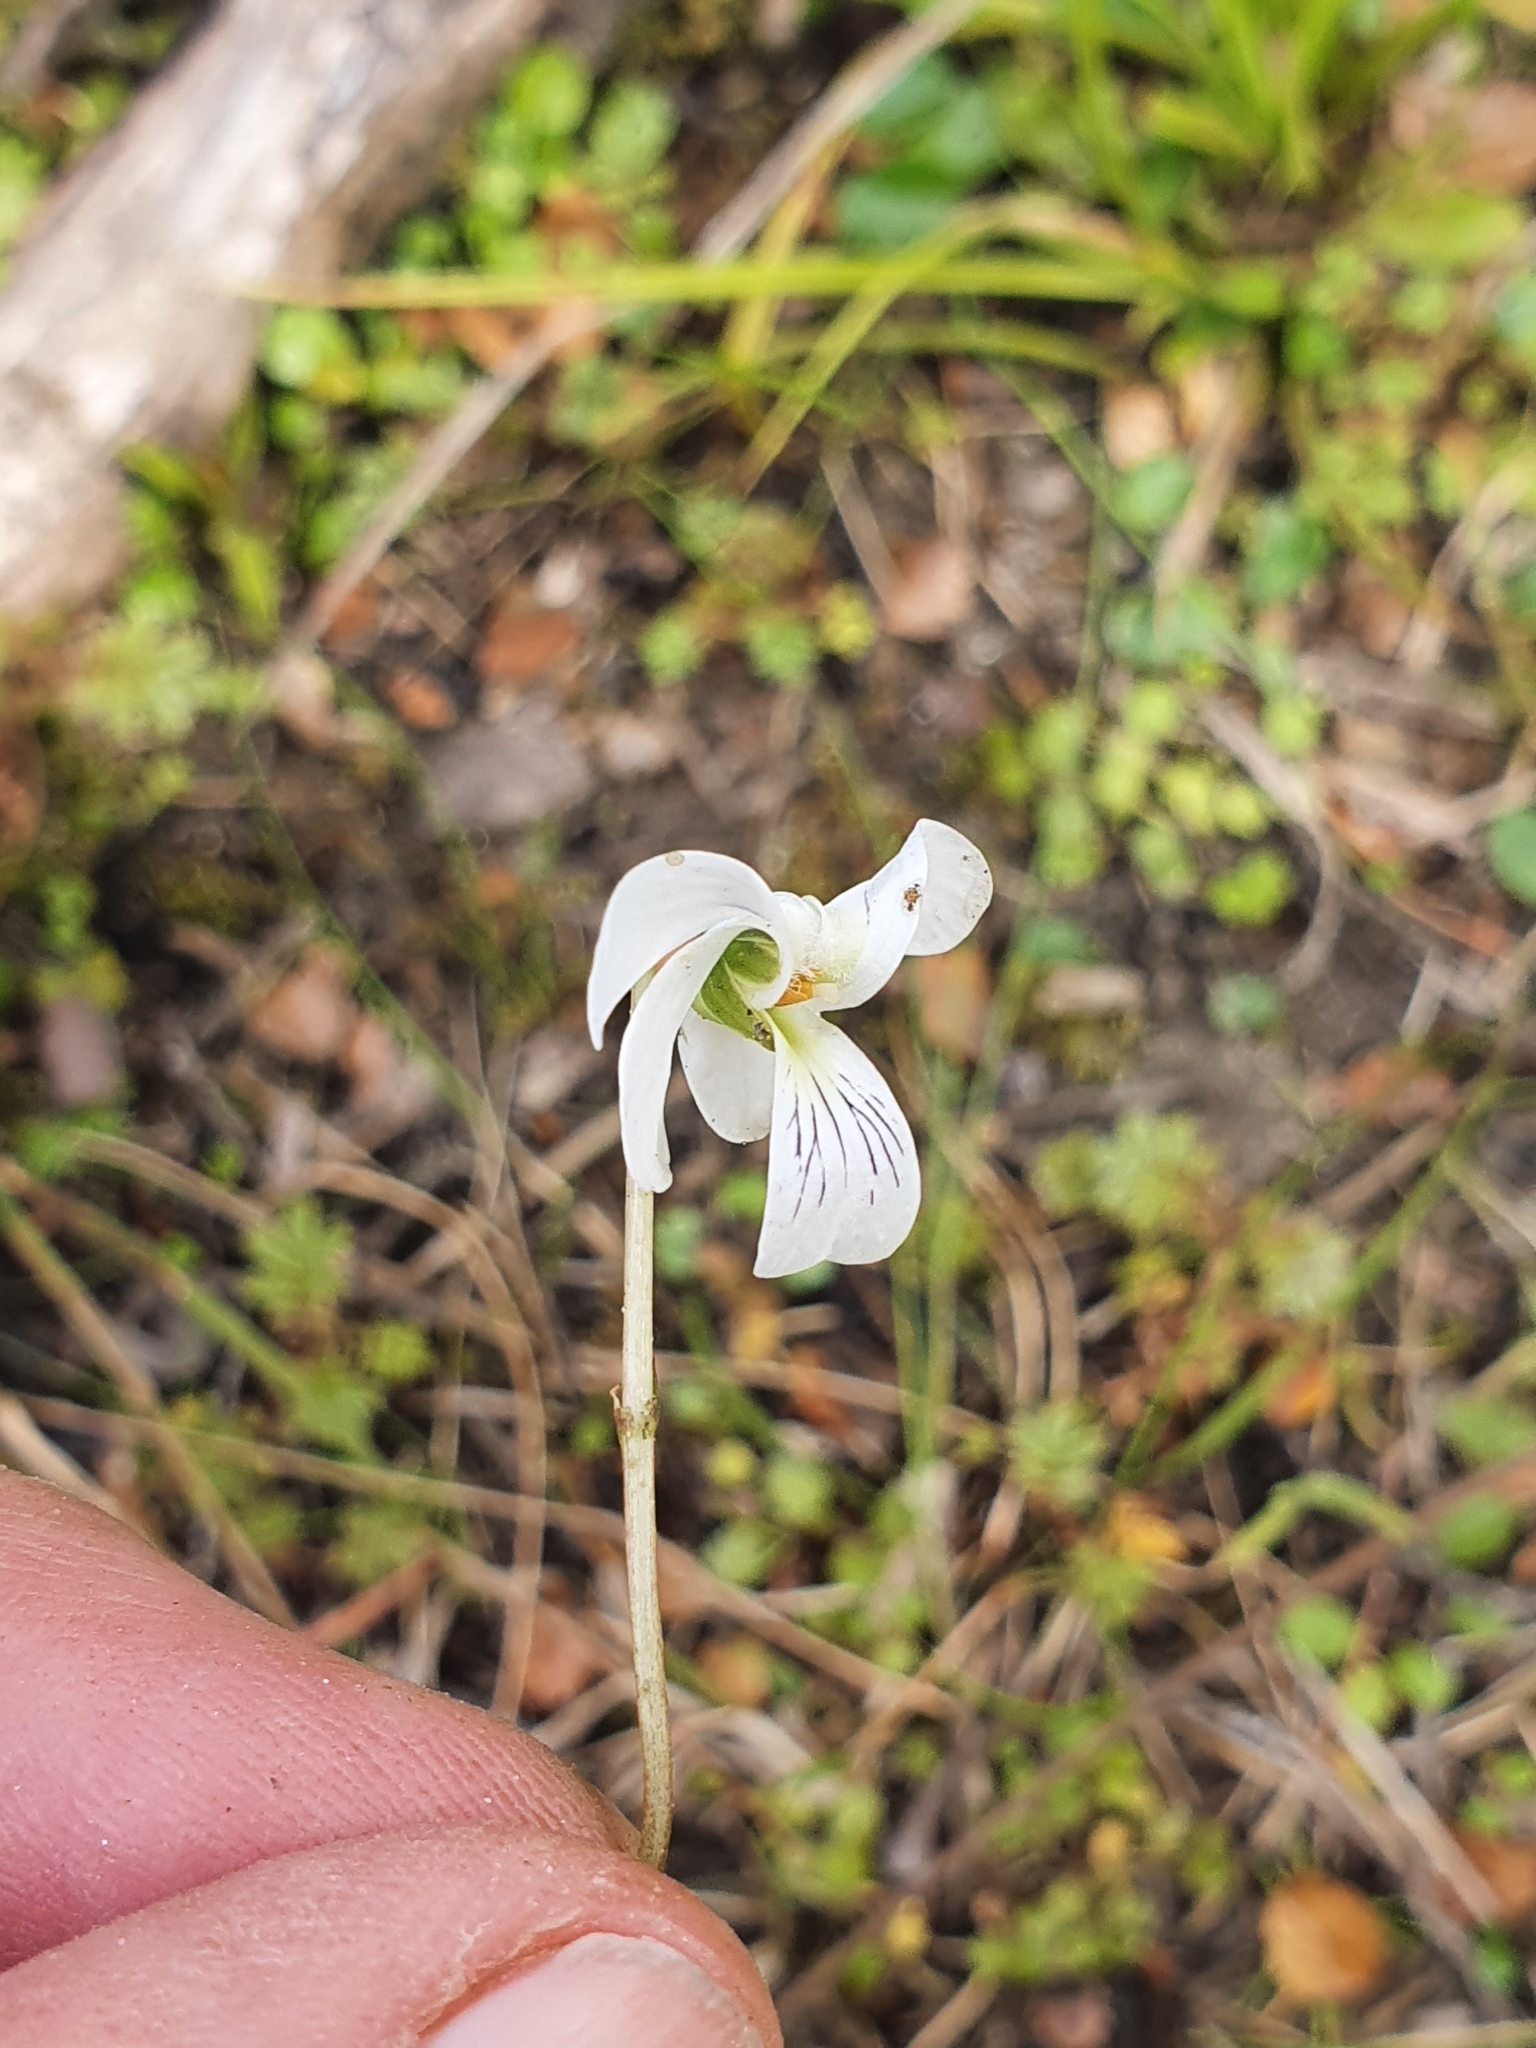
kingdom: Plantae
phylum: Tracheophyta
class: Magnoliopsida
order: Malpighiales
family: Violaceae
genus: Viola
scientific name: Viola cunninghamii
